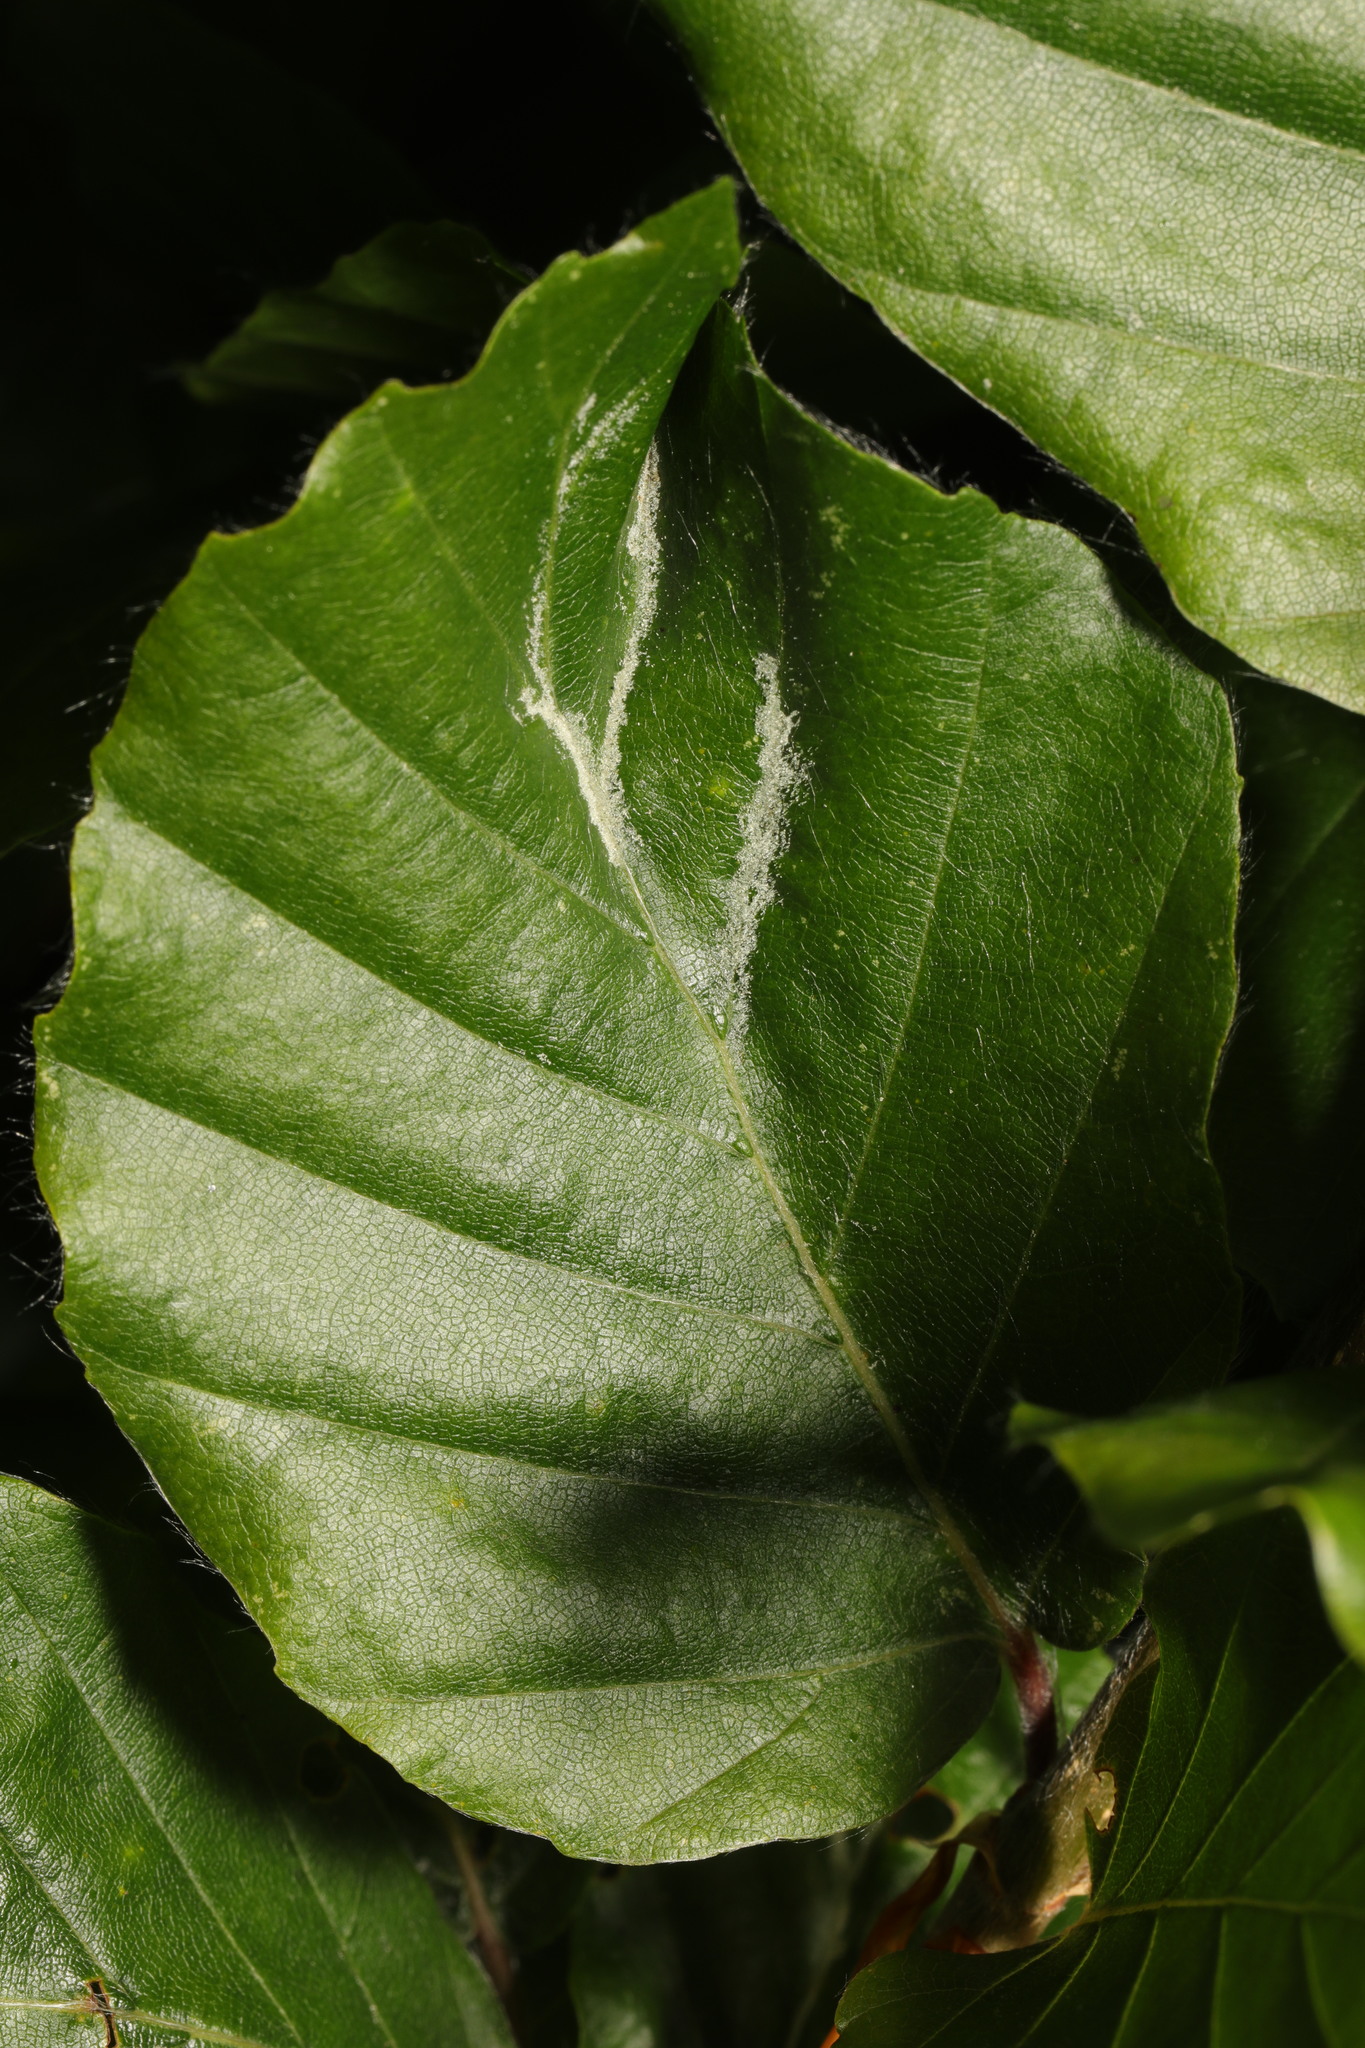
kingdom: Animalia
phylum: Arthropoda
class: Arachnida
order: Trombidiformes
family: Eriophyidae
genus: Aceria
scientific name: Aceria nervisequa
